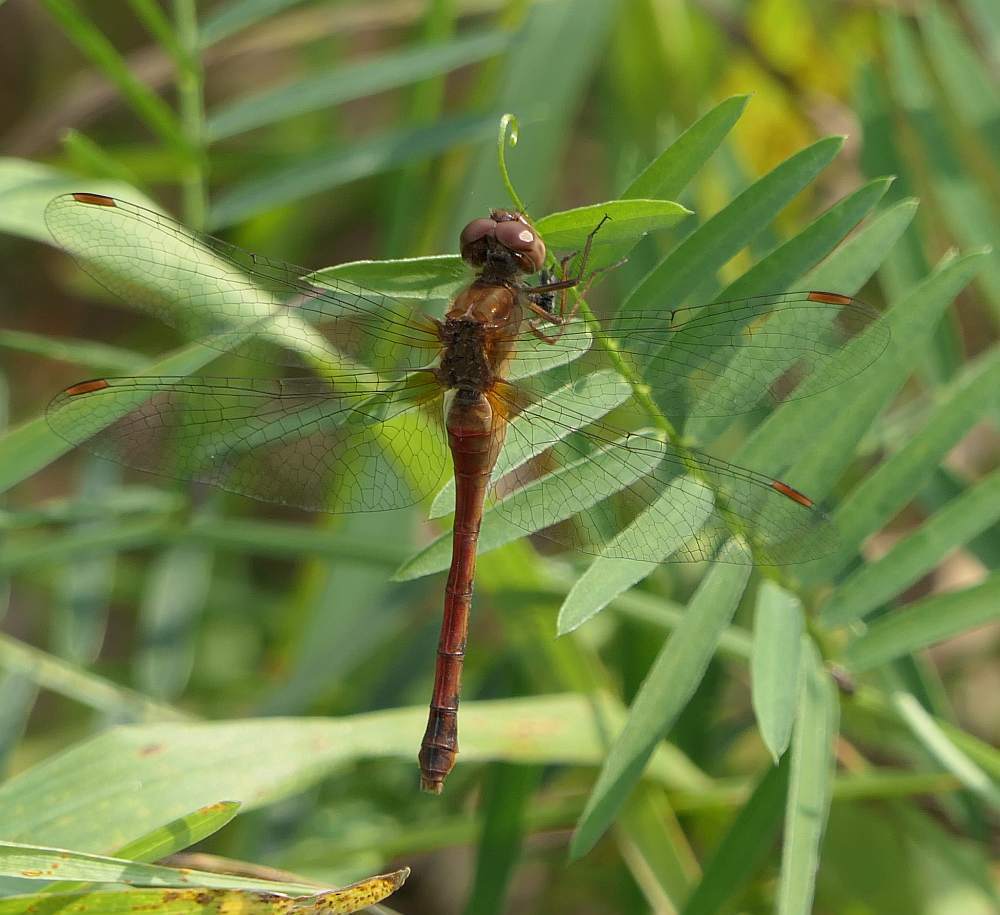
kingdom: Animalia
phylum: Arthropoda
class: Insecta
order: Odonata
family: Libellulidae
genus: Sympetrum
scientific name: Sympetrum vicinum
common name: Autumn meadowhawk
